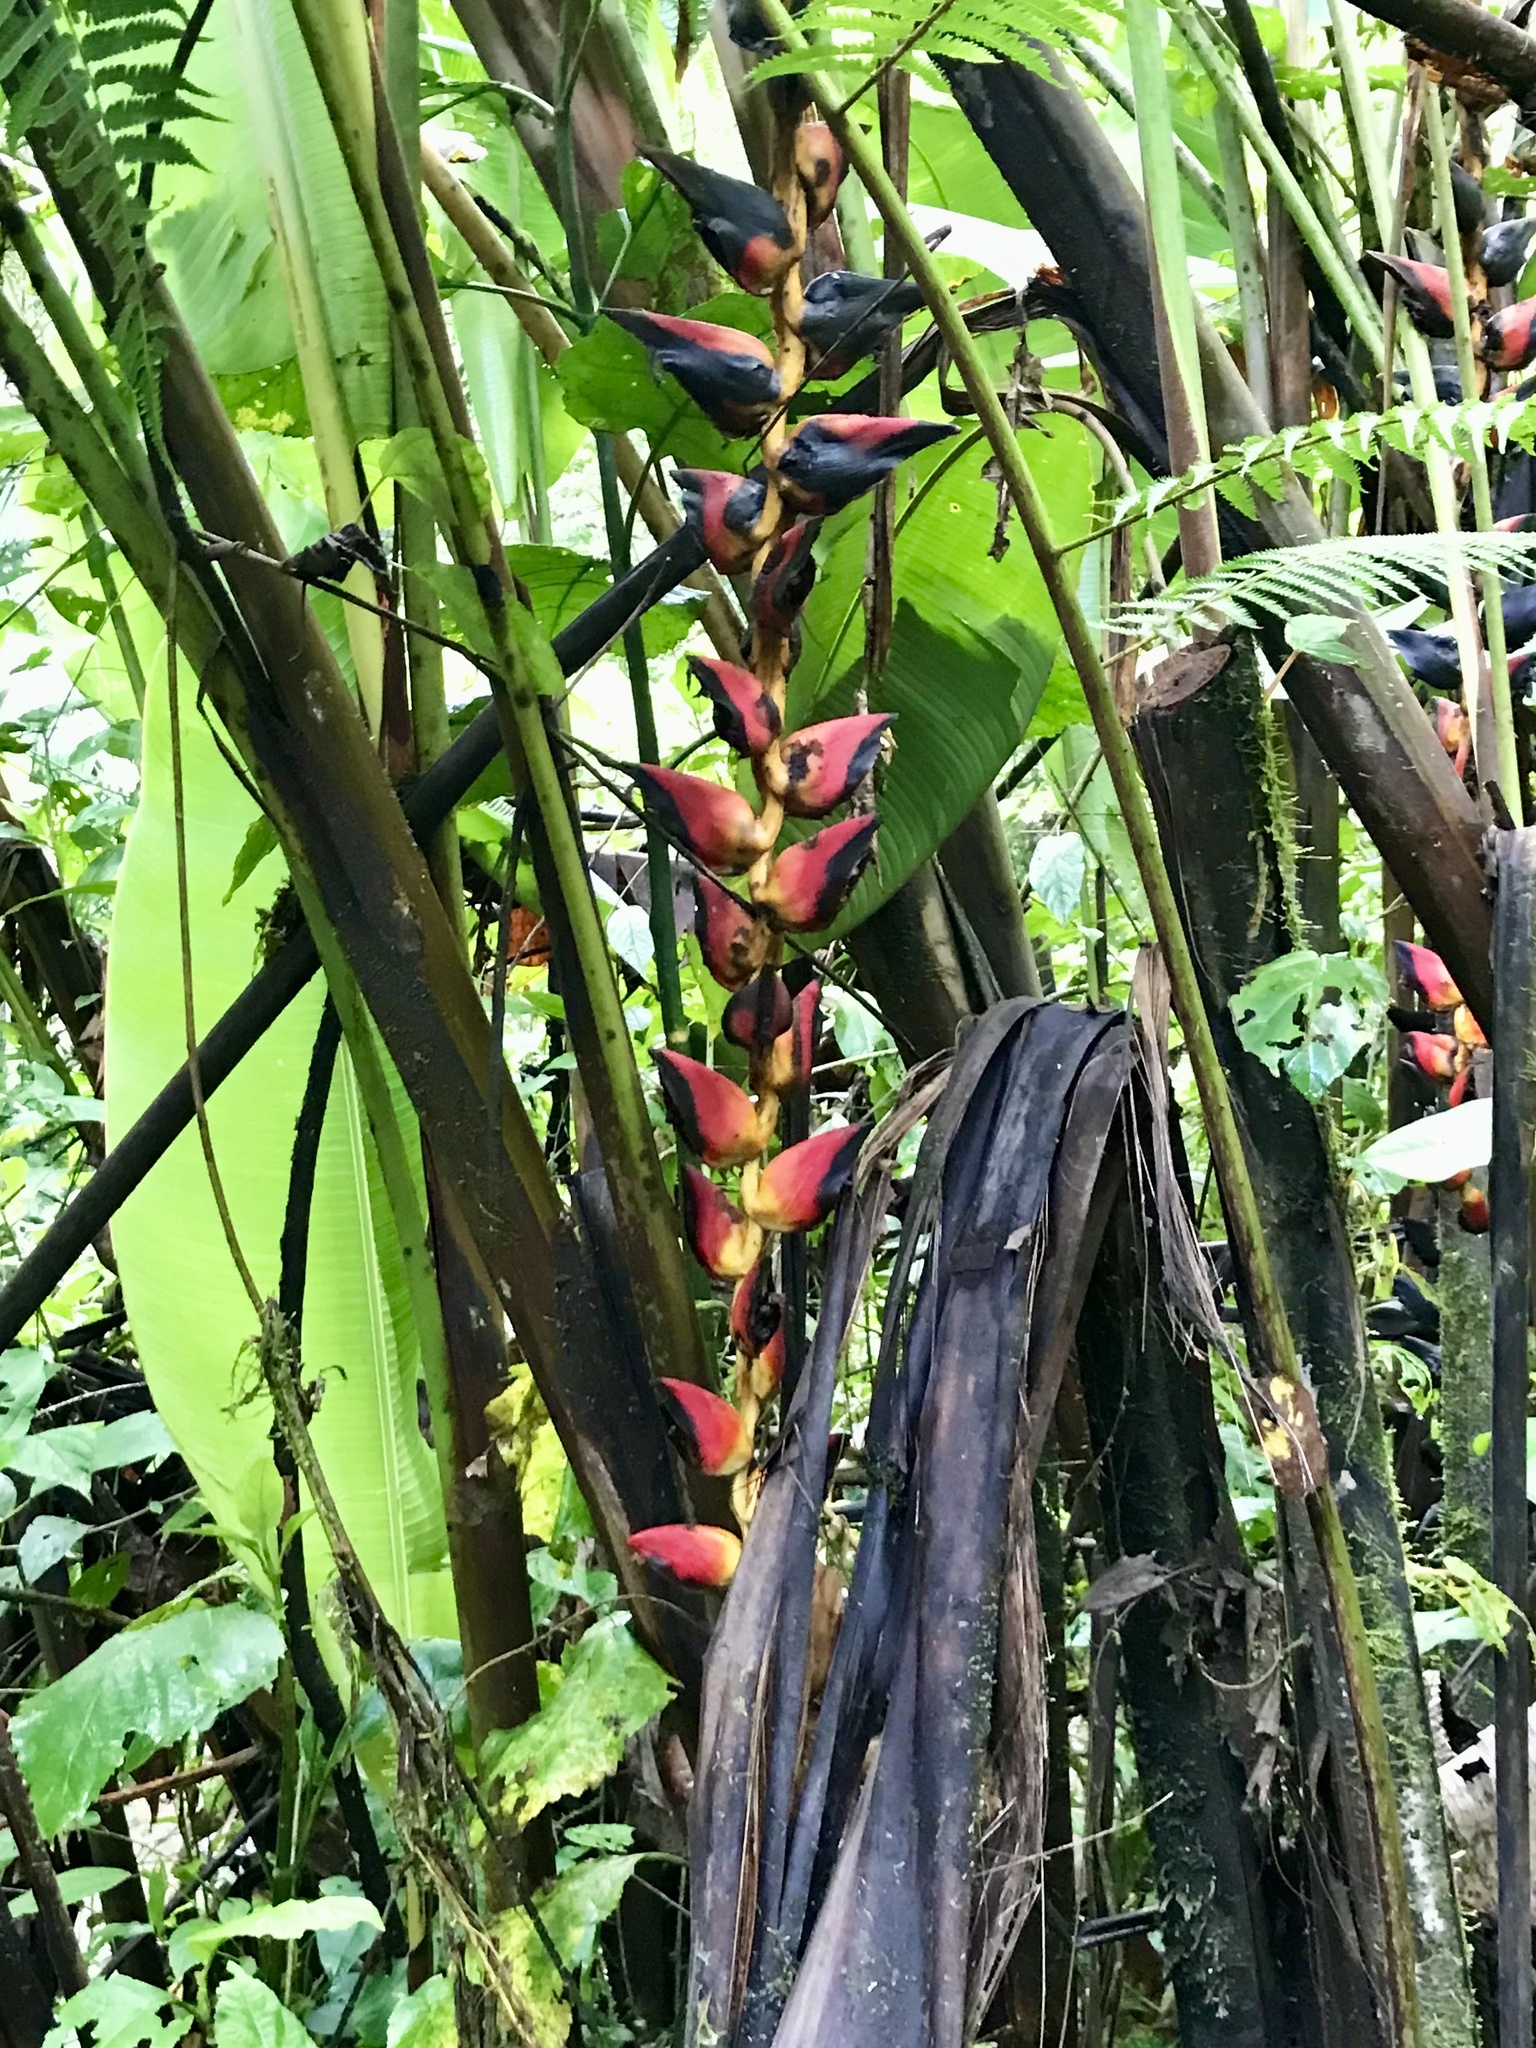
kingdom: Plantae
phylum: Tracheophyta
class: Liliopsida
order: Zingiberales
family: Heliconiaceae
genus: Heliconia
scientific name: Heliconia pogonantha
